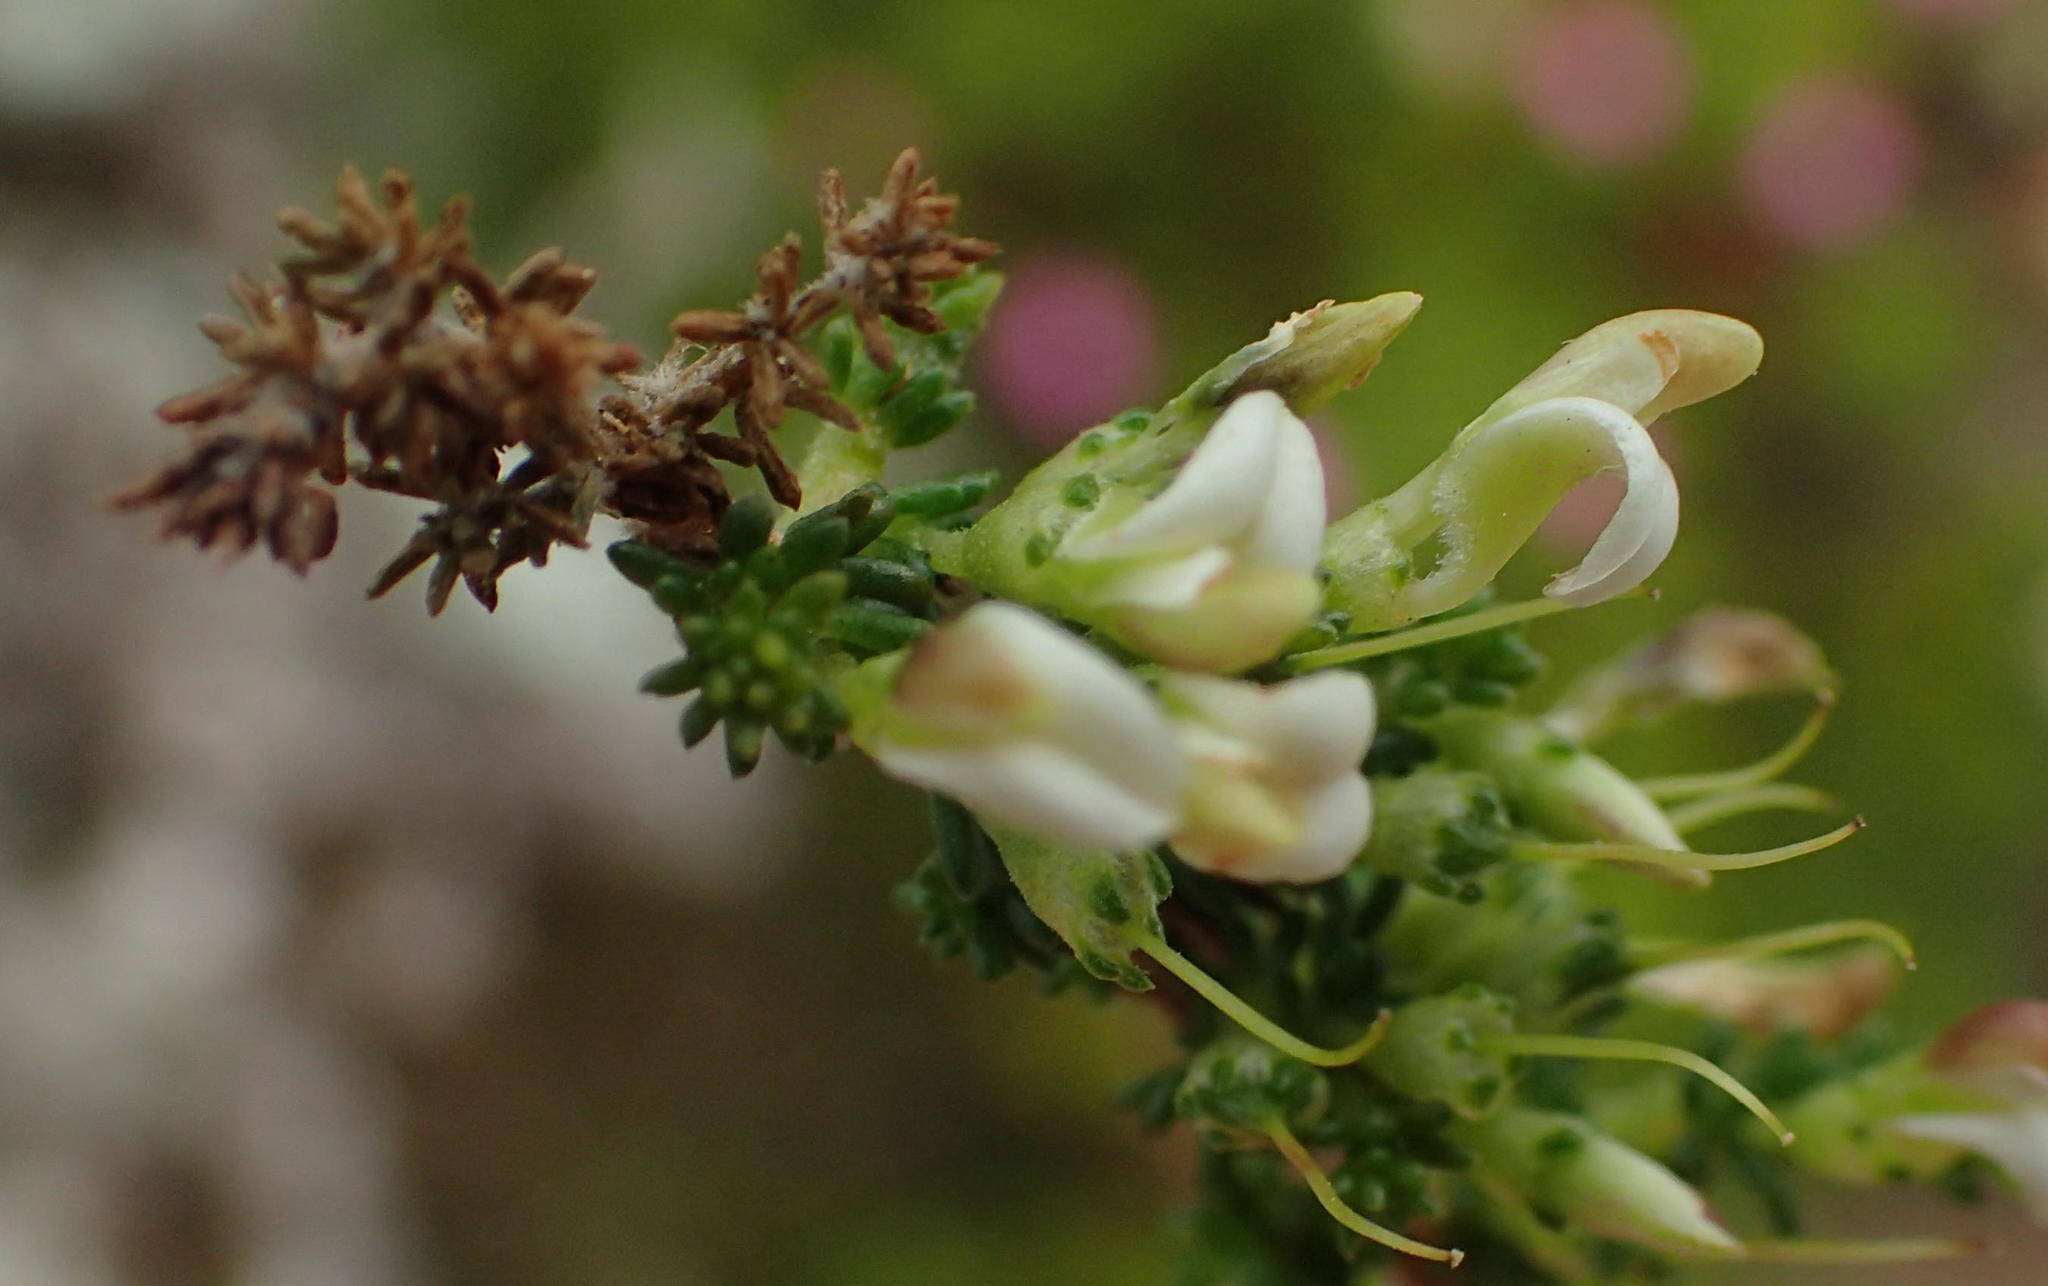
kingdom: Plantae
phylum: Tracheophyta
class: Magnoliopsida
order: Fabales
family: Fabaceae
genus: Aspalathus
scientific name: Aspalathus hispida
